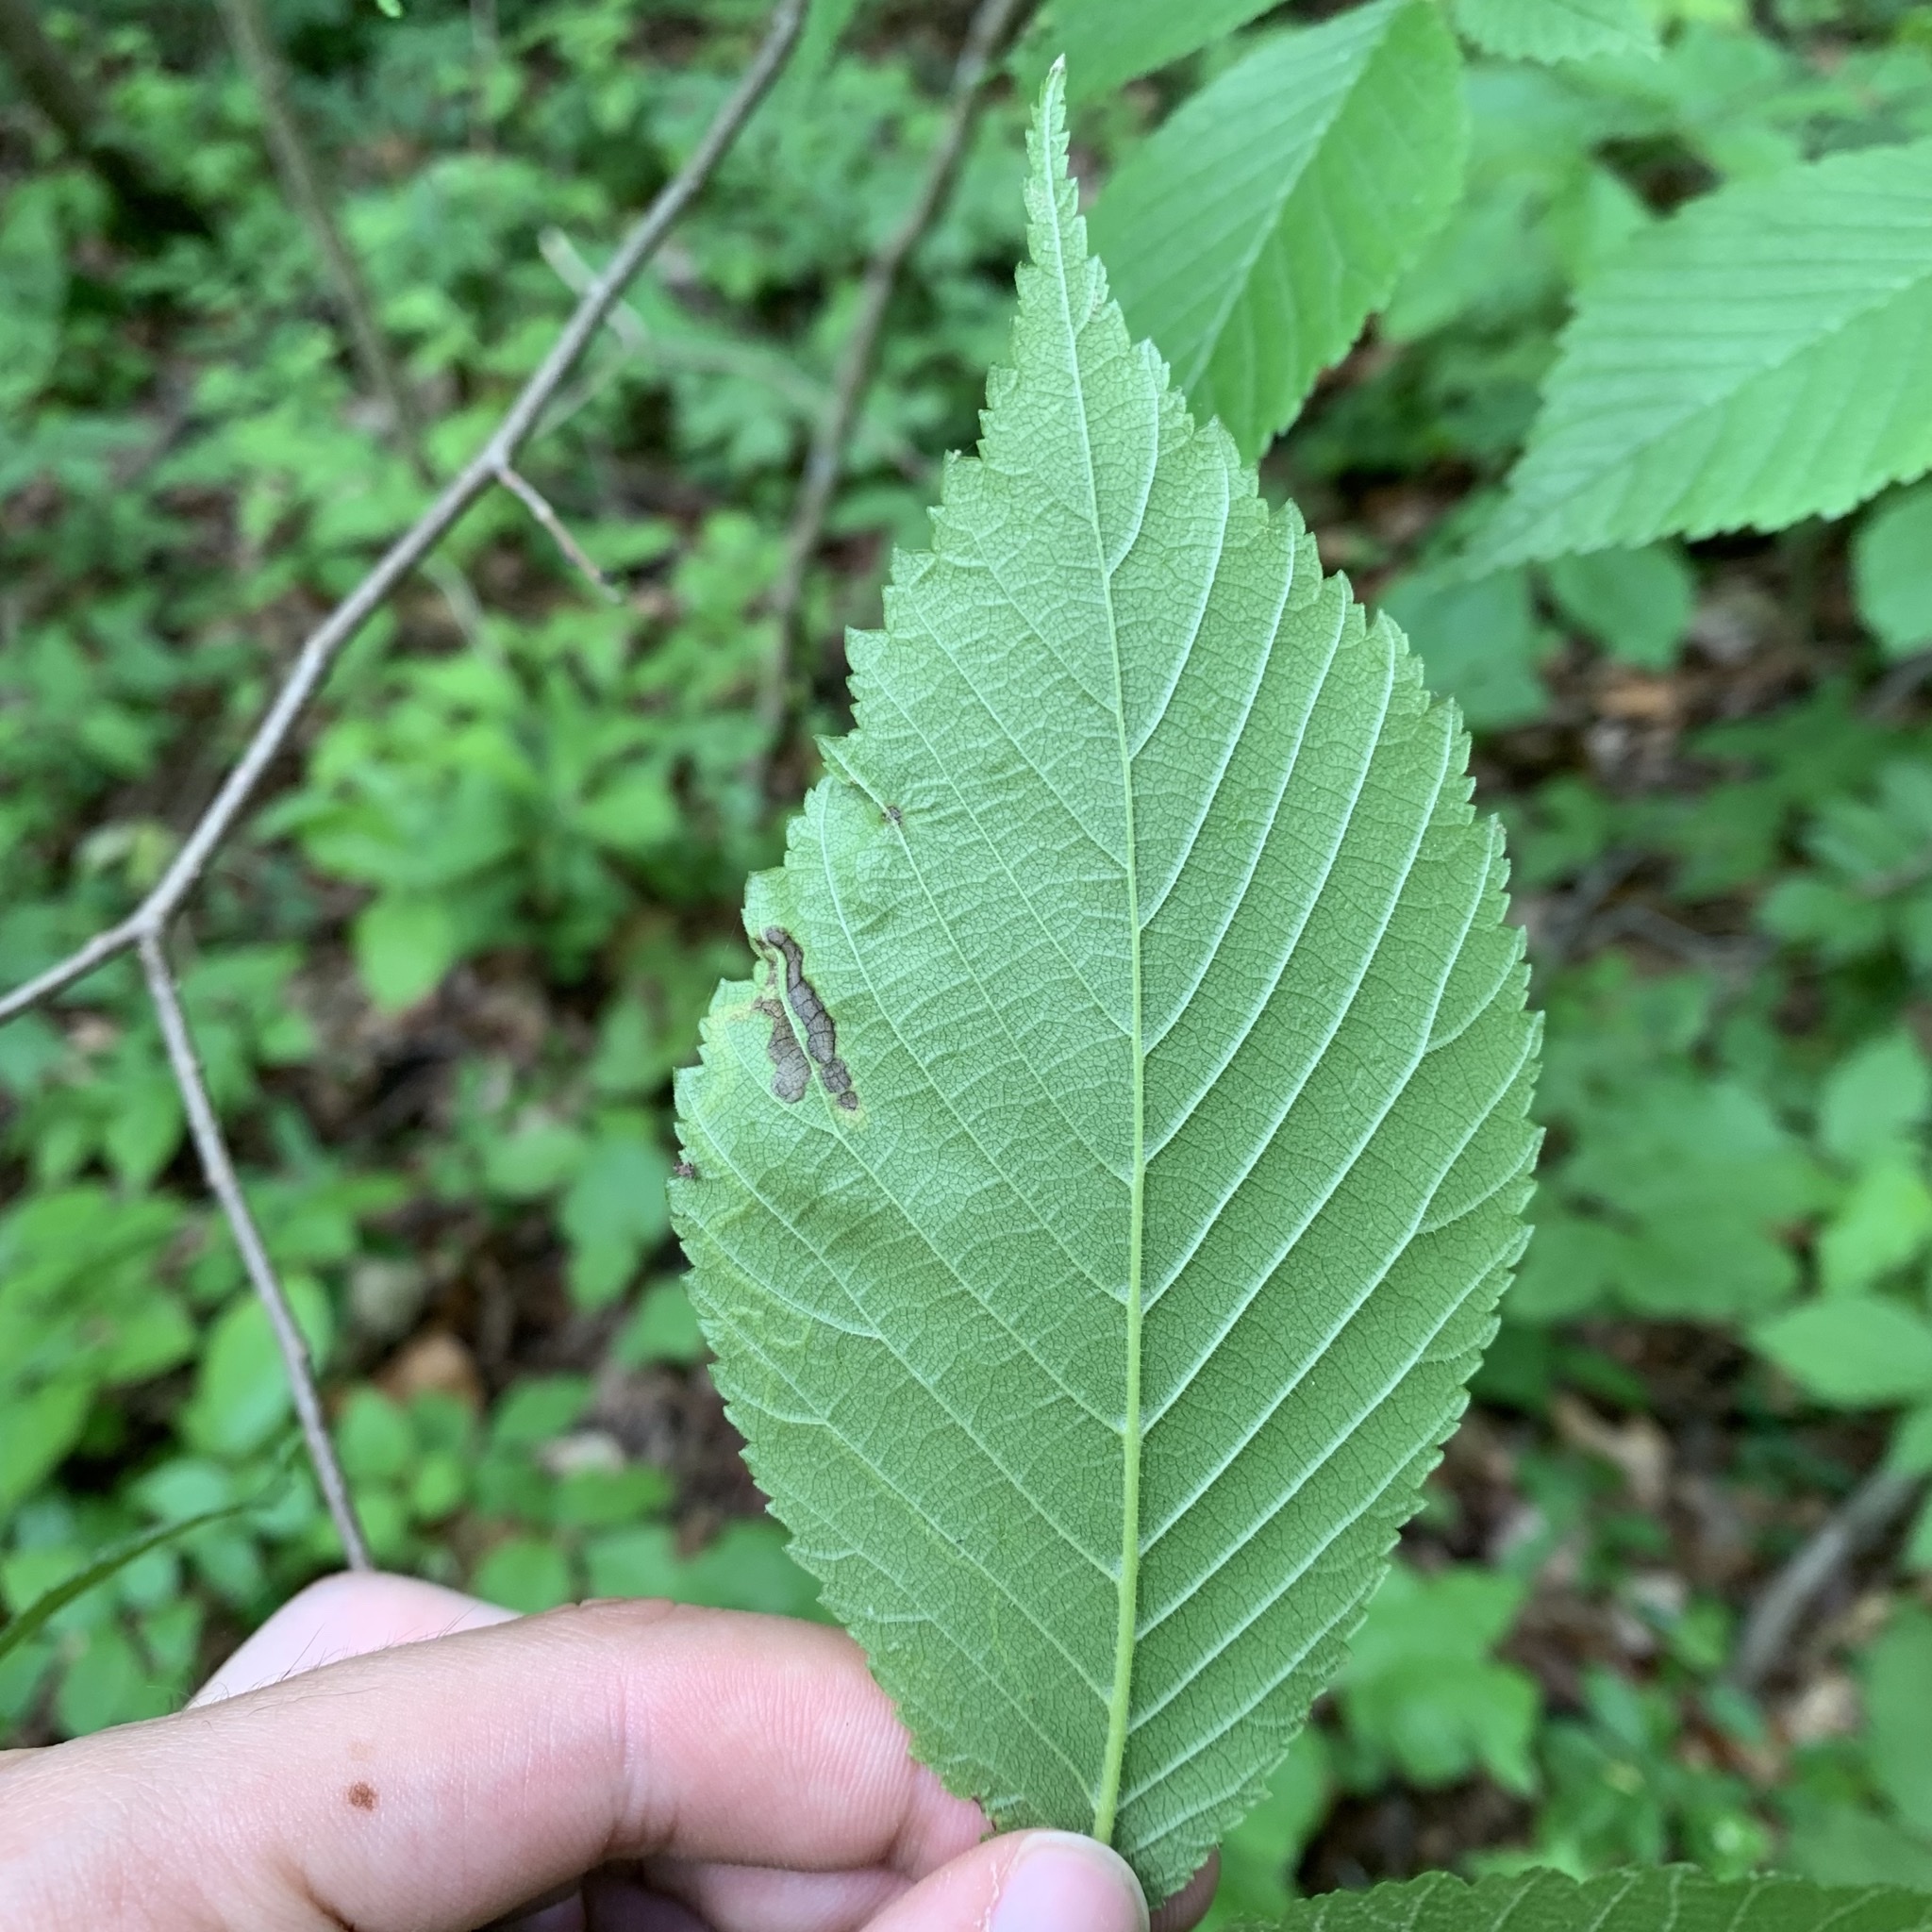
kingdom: Animalia
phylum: Arthropoda
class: Insecta
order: Diptera
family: Agromyzidae
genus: Agromyza
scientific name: Agromyza aristata
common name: Elm agromyzid leafminer
